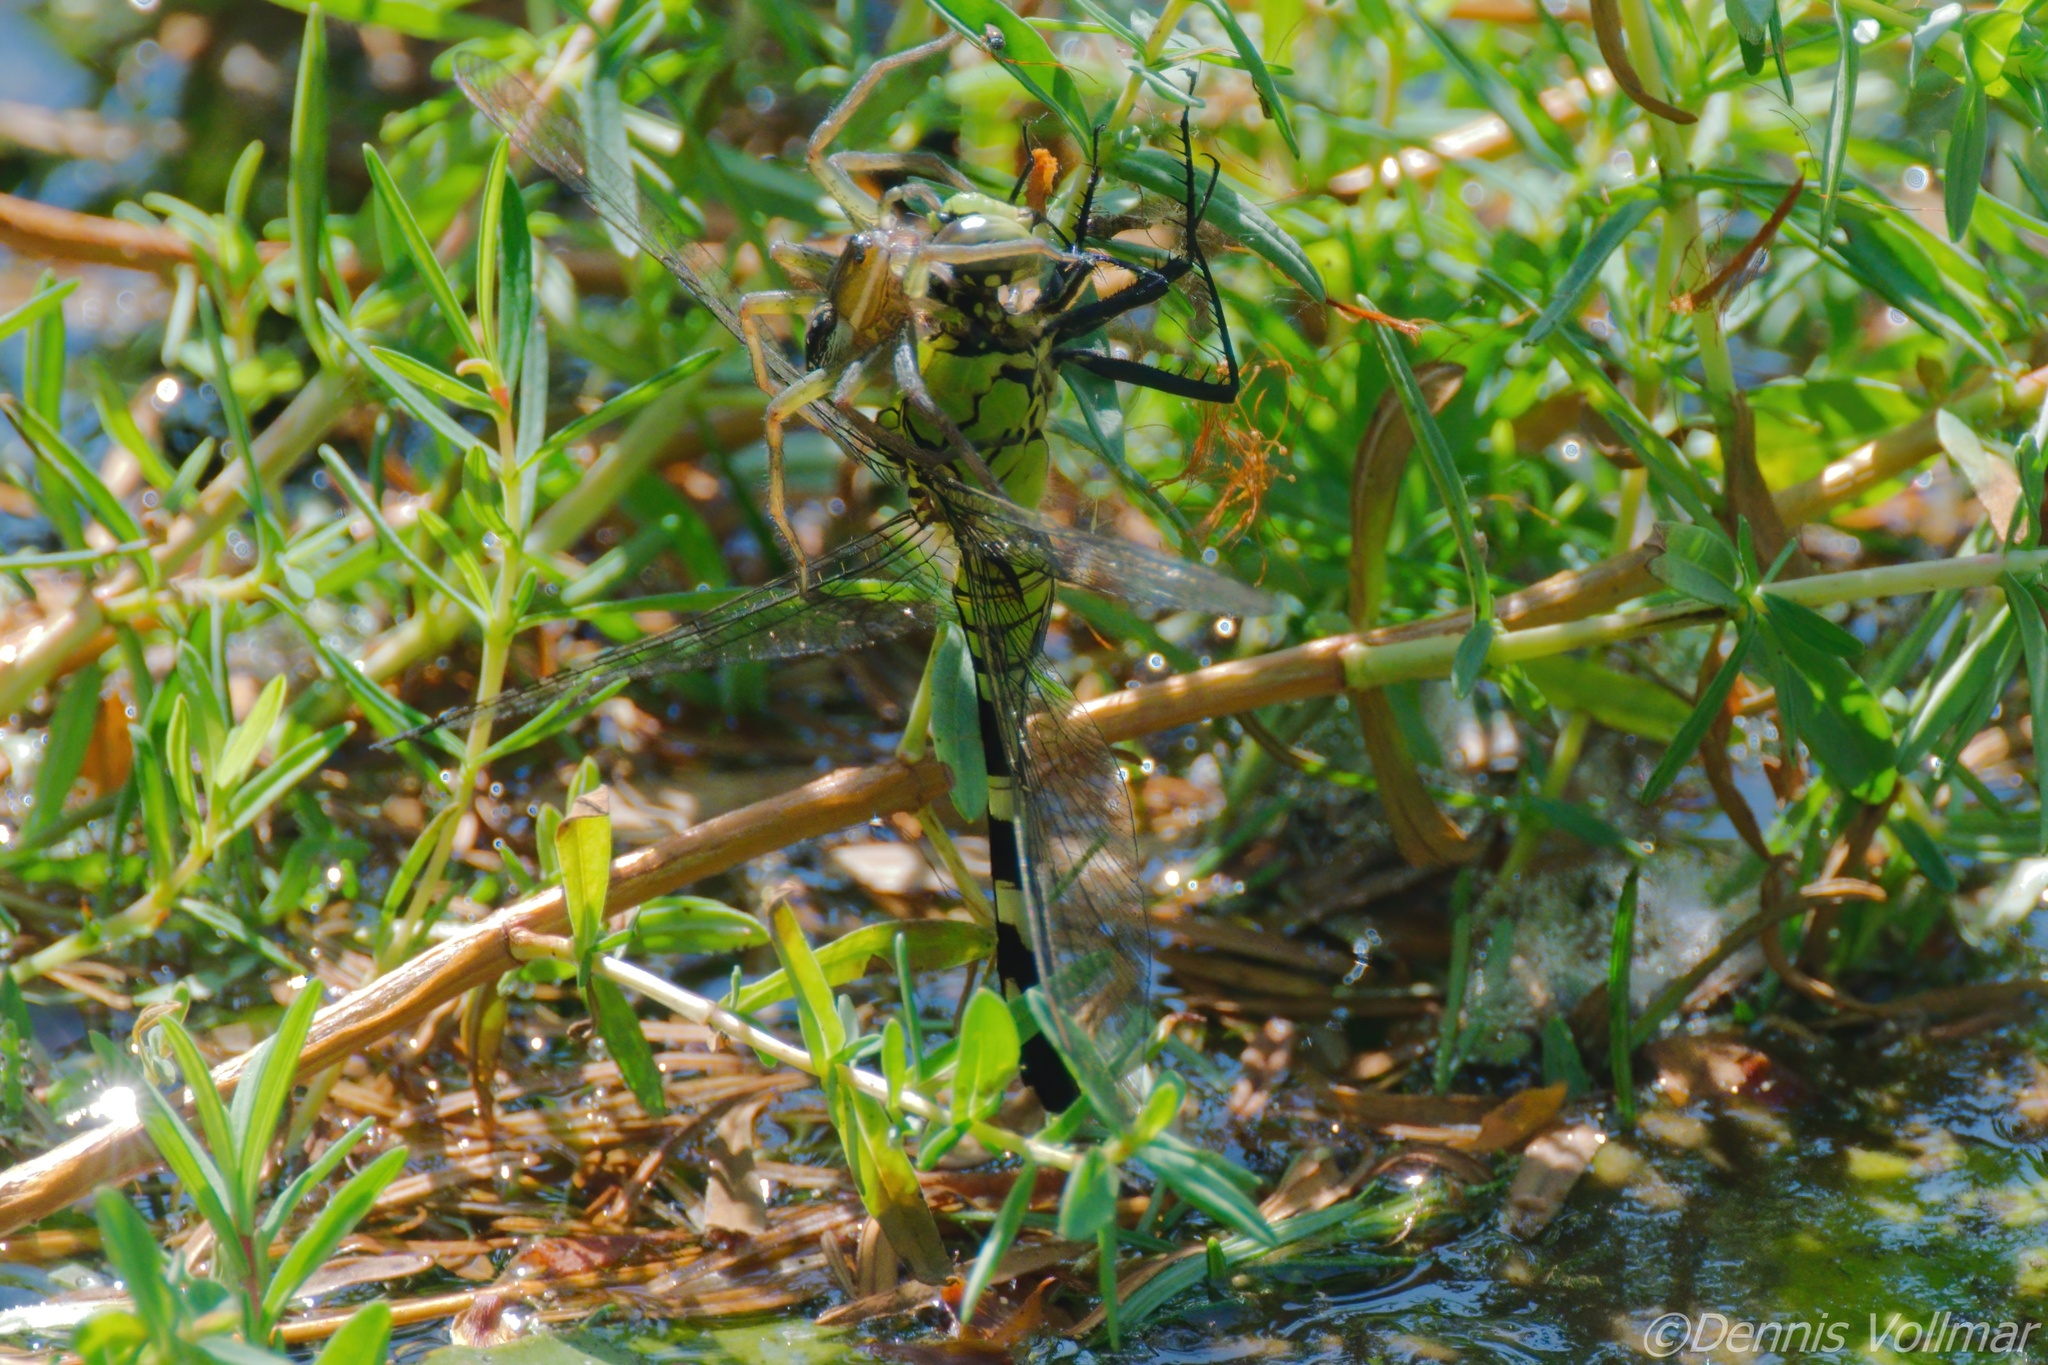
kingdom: Animalia
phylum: Arthropoda
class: Insecta
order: Odonata
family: Libellulidae
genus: Erythemis
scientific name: Erythemis simplicicollis
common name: Eastern pondhawk
